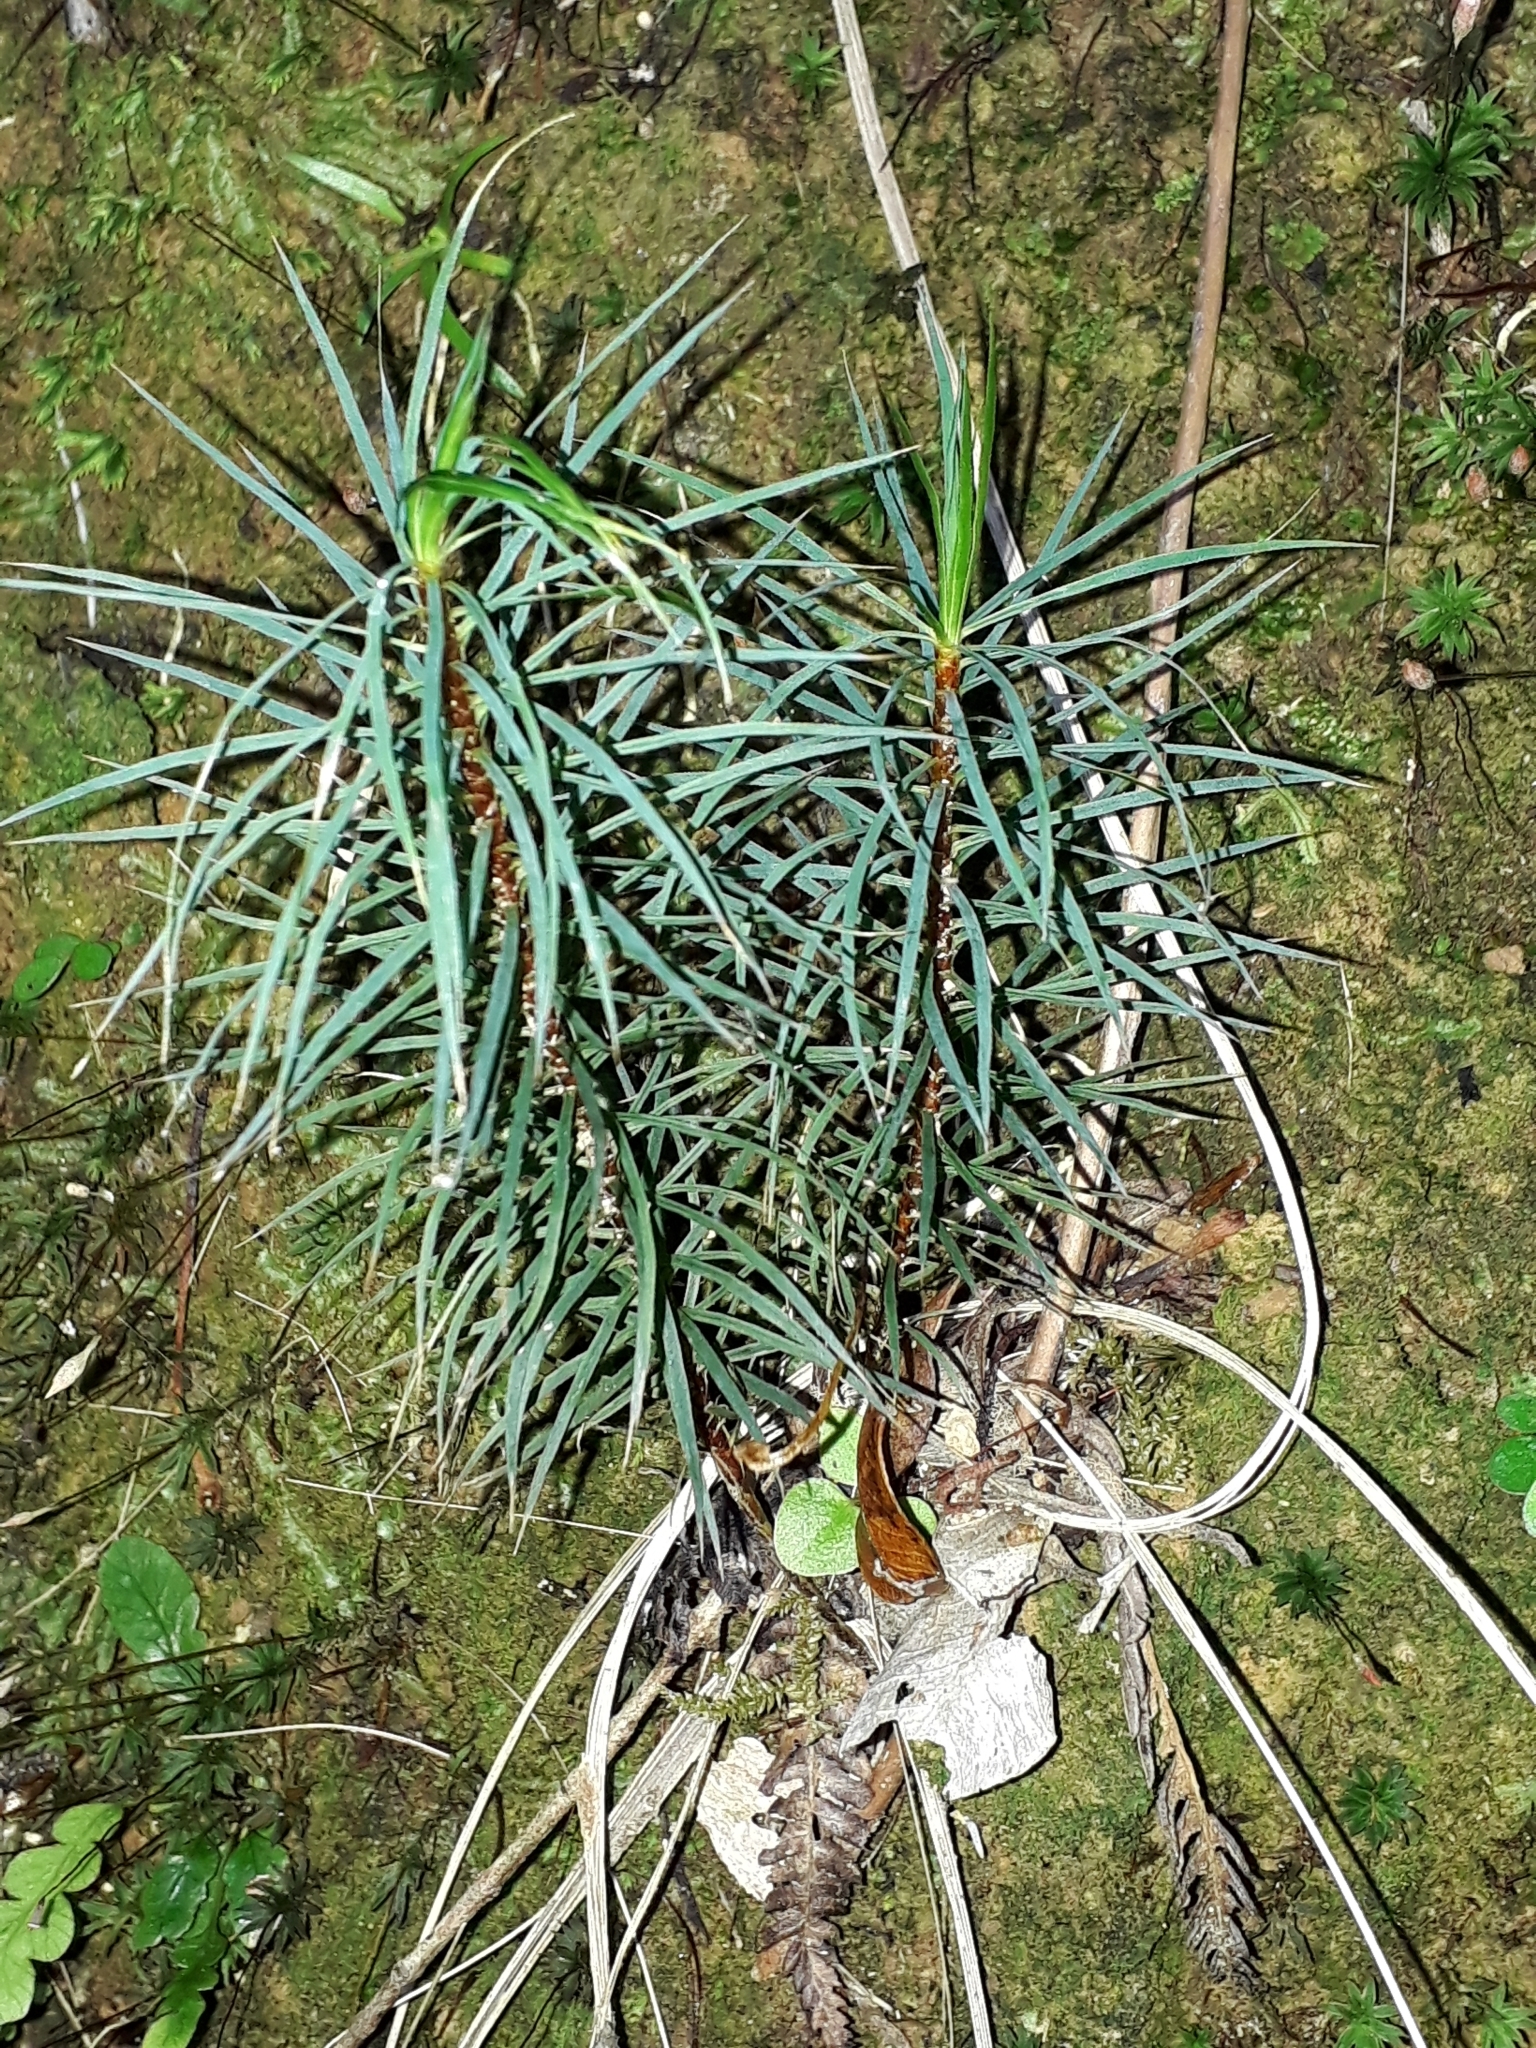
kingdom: Plantae
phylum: Bryophyta
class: Polytrichopsida
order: Polytrichales
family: Polytrichaceae
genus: Dawsonia
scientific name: Dawsonia superba
